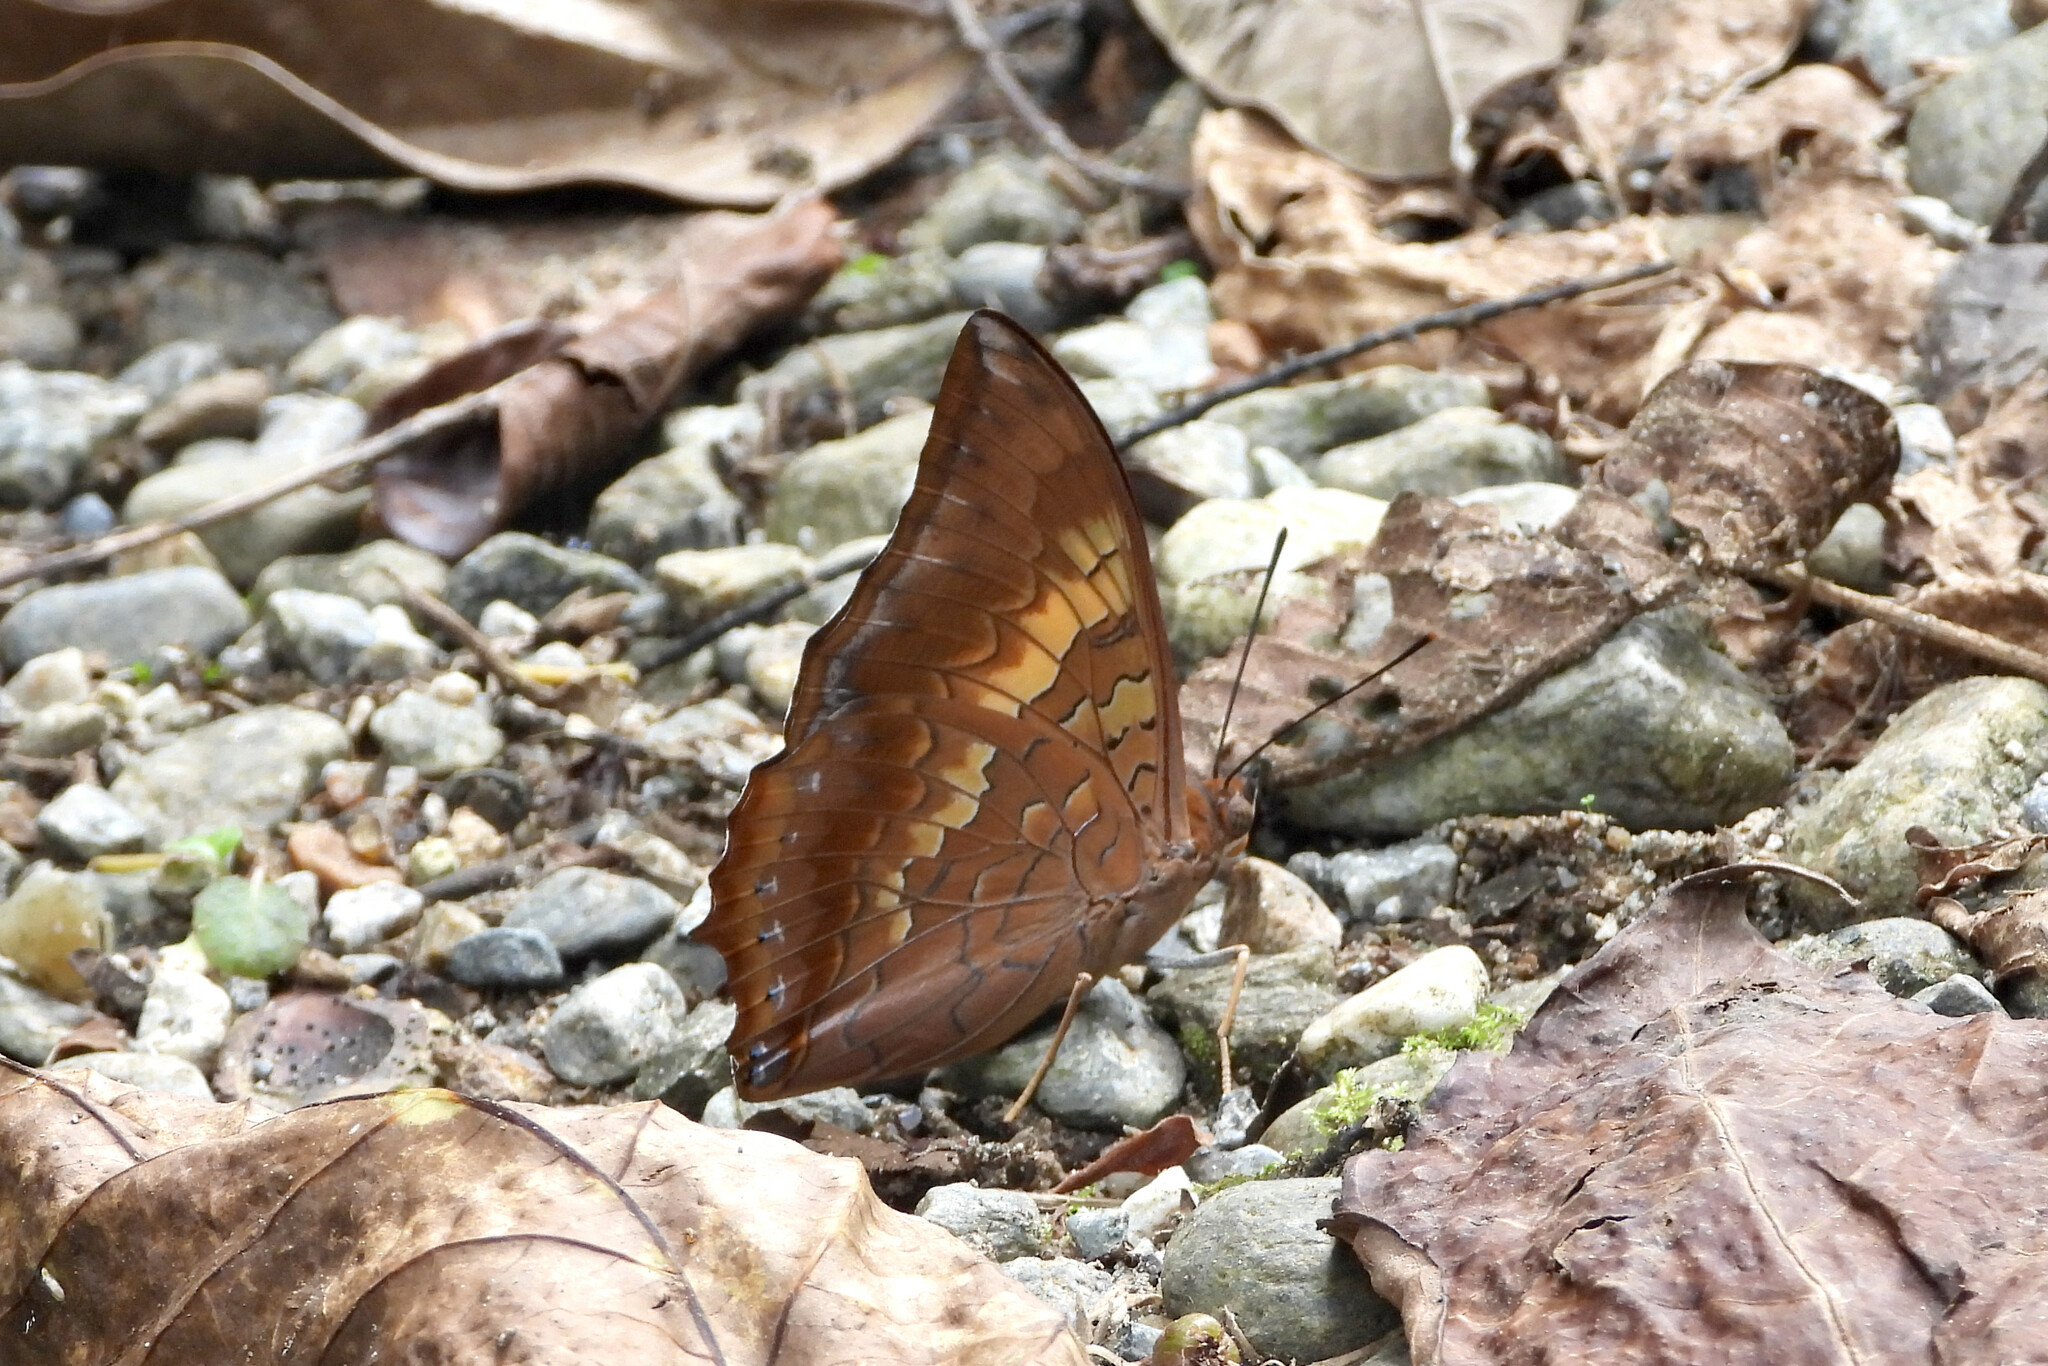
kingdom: Animalia
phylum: Arthropoda
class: Insecta
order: Lepidoptera
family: Nymphalidae
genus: Charaxes
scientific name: Charaxes bernardus
